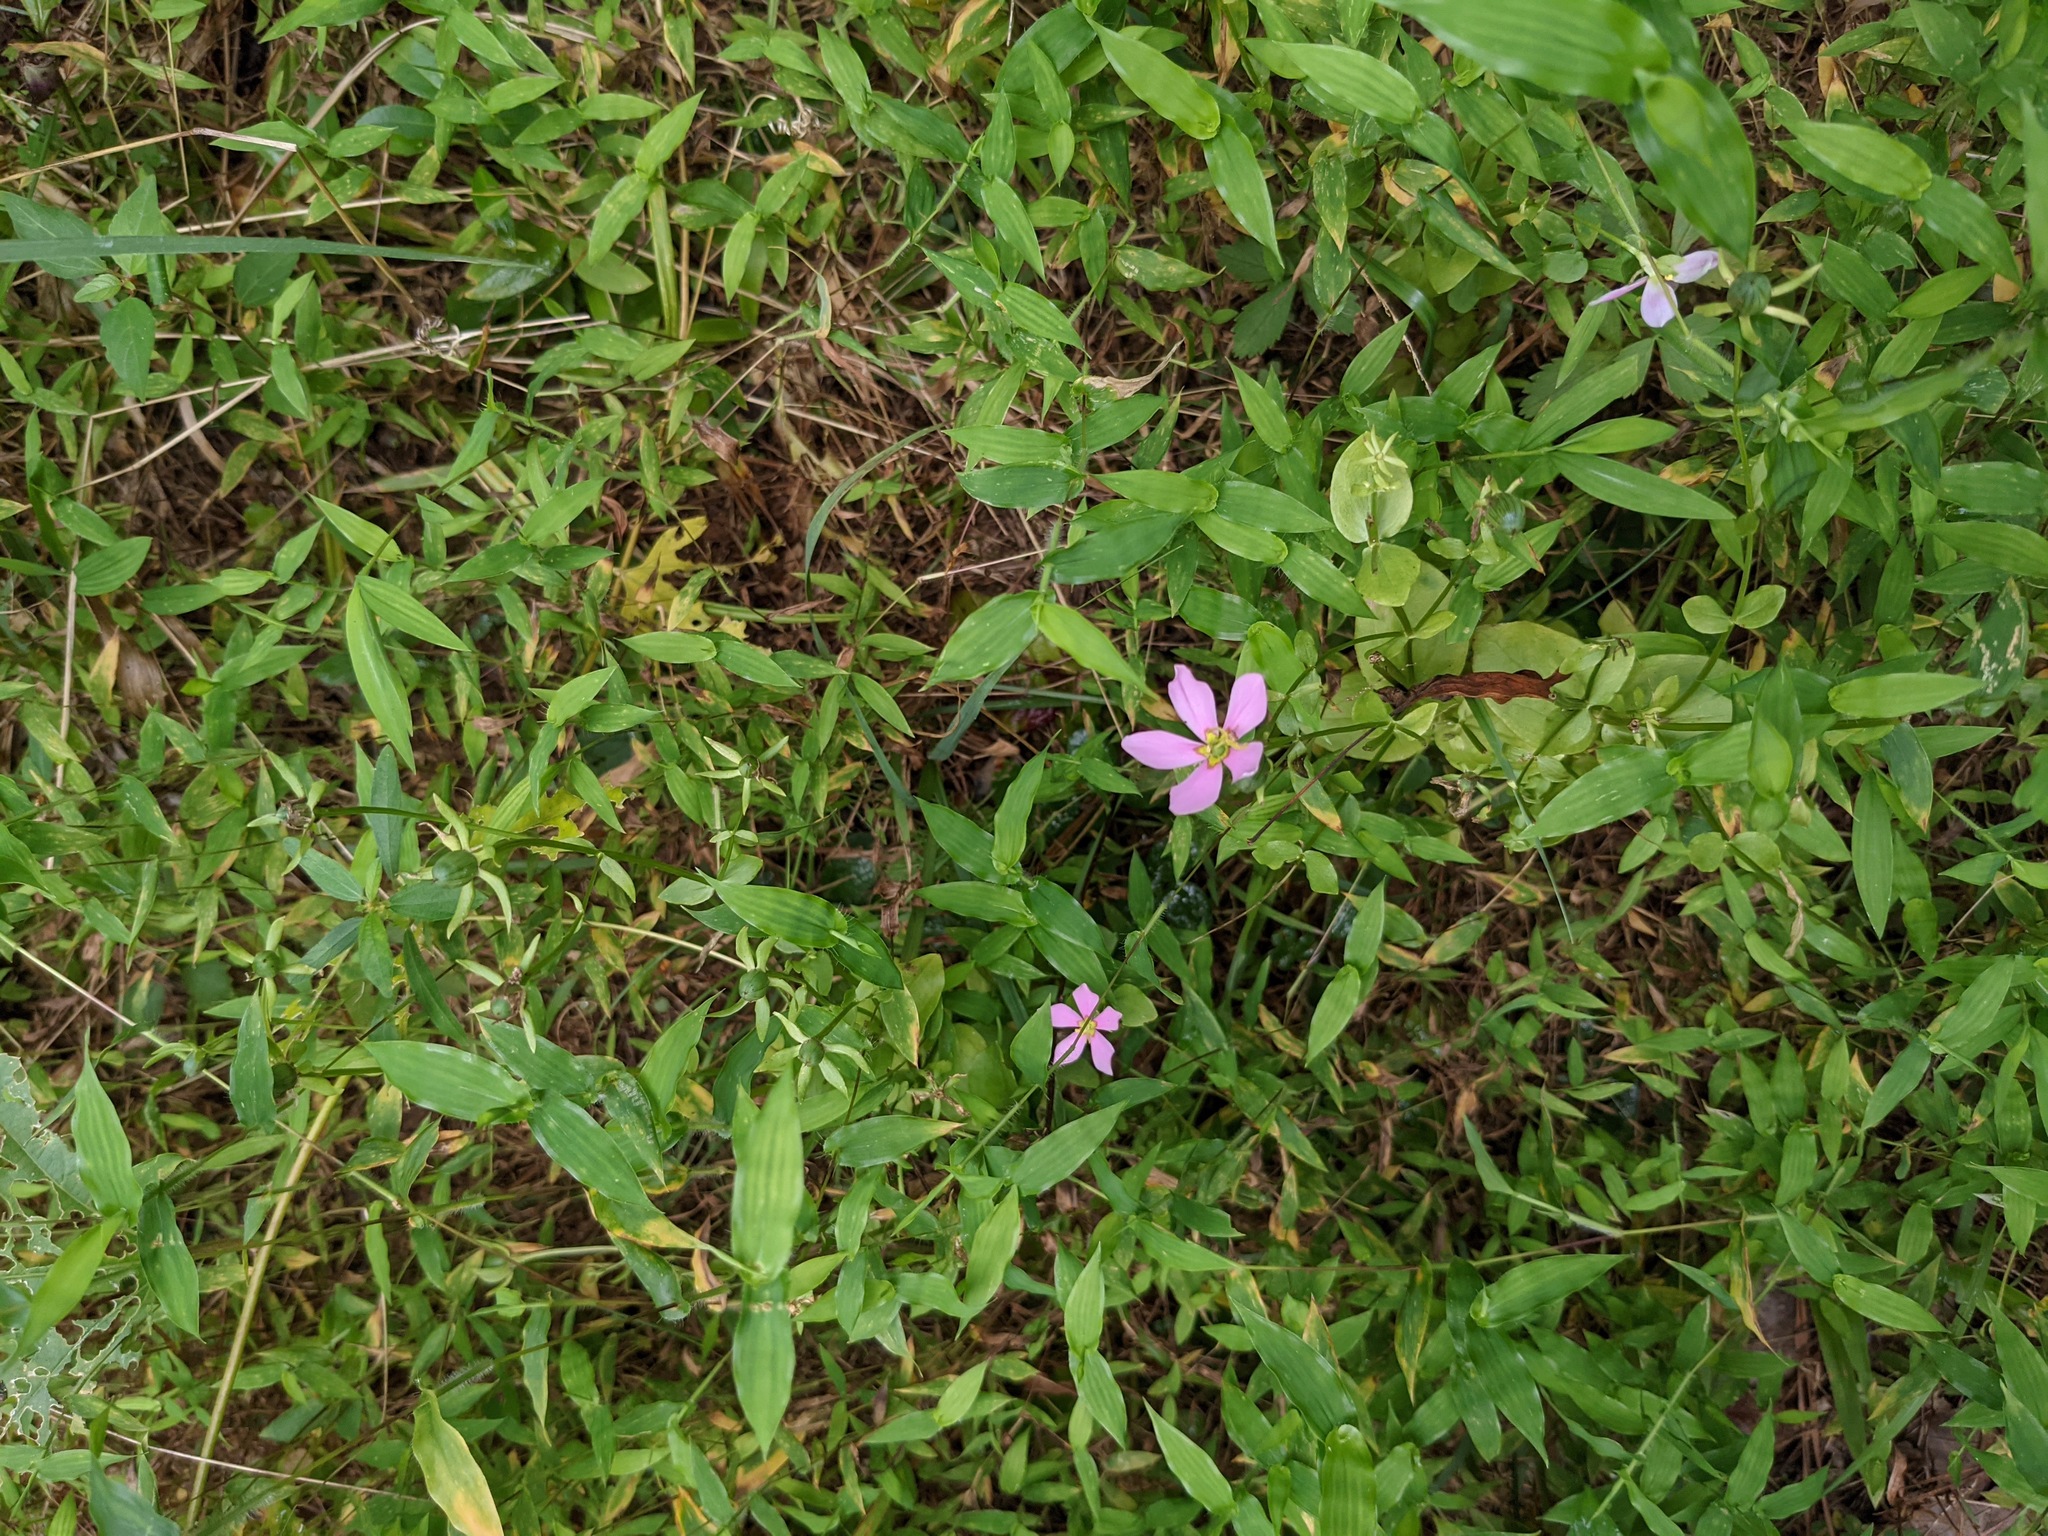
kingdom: Plantae
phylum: Tracheophyta
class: Magnoliopsida
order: Gentianales
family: Gentianaceae
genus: Sabatia
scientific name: Sabatia angularis
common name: Rose-pink
